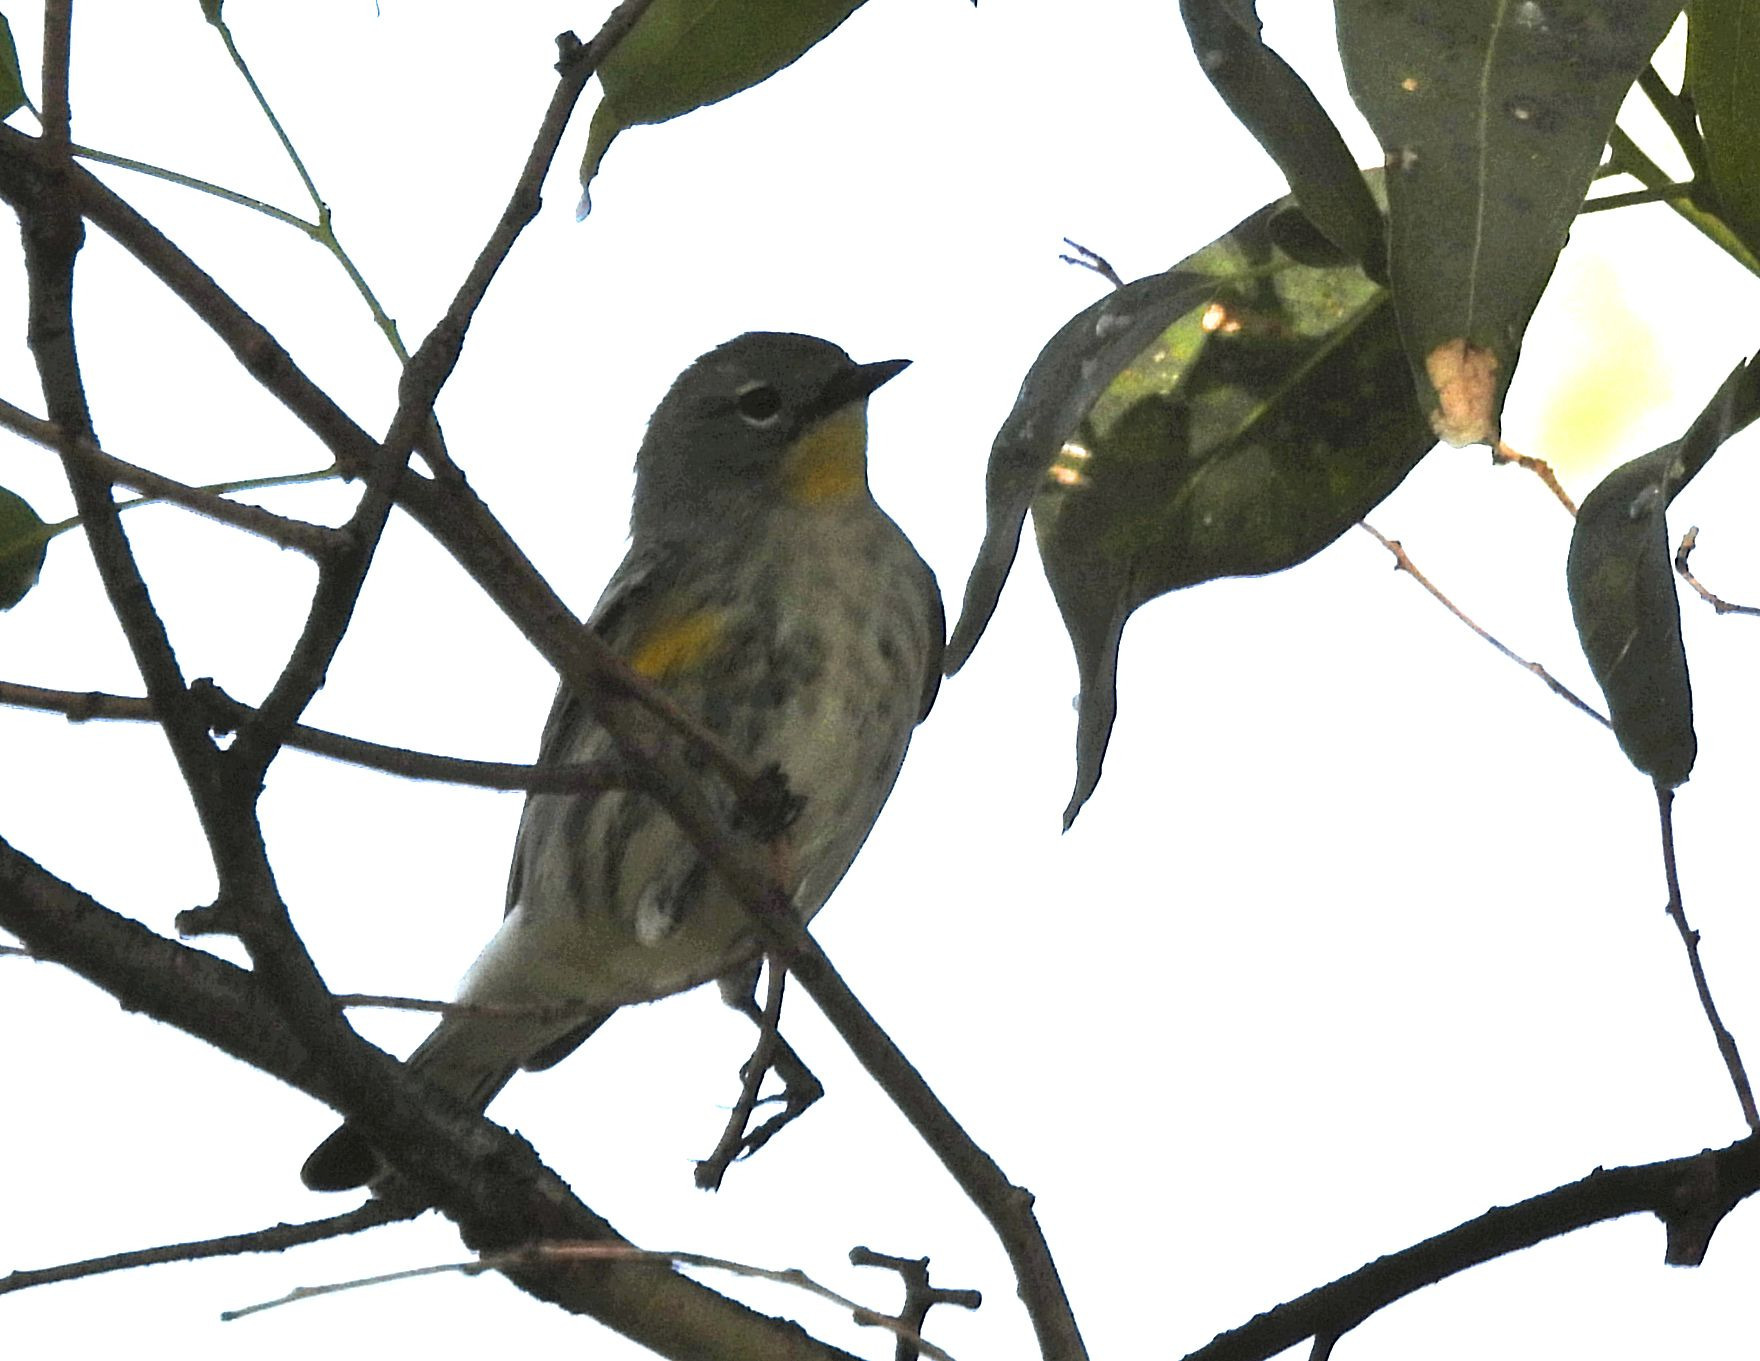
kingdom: Animalia
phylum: Chordata
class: Aves
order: Passeriformes
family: Parulidae
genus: Setophaga
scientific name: Setophaga coronata
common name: Myrtle warbler
